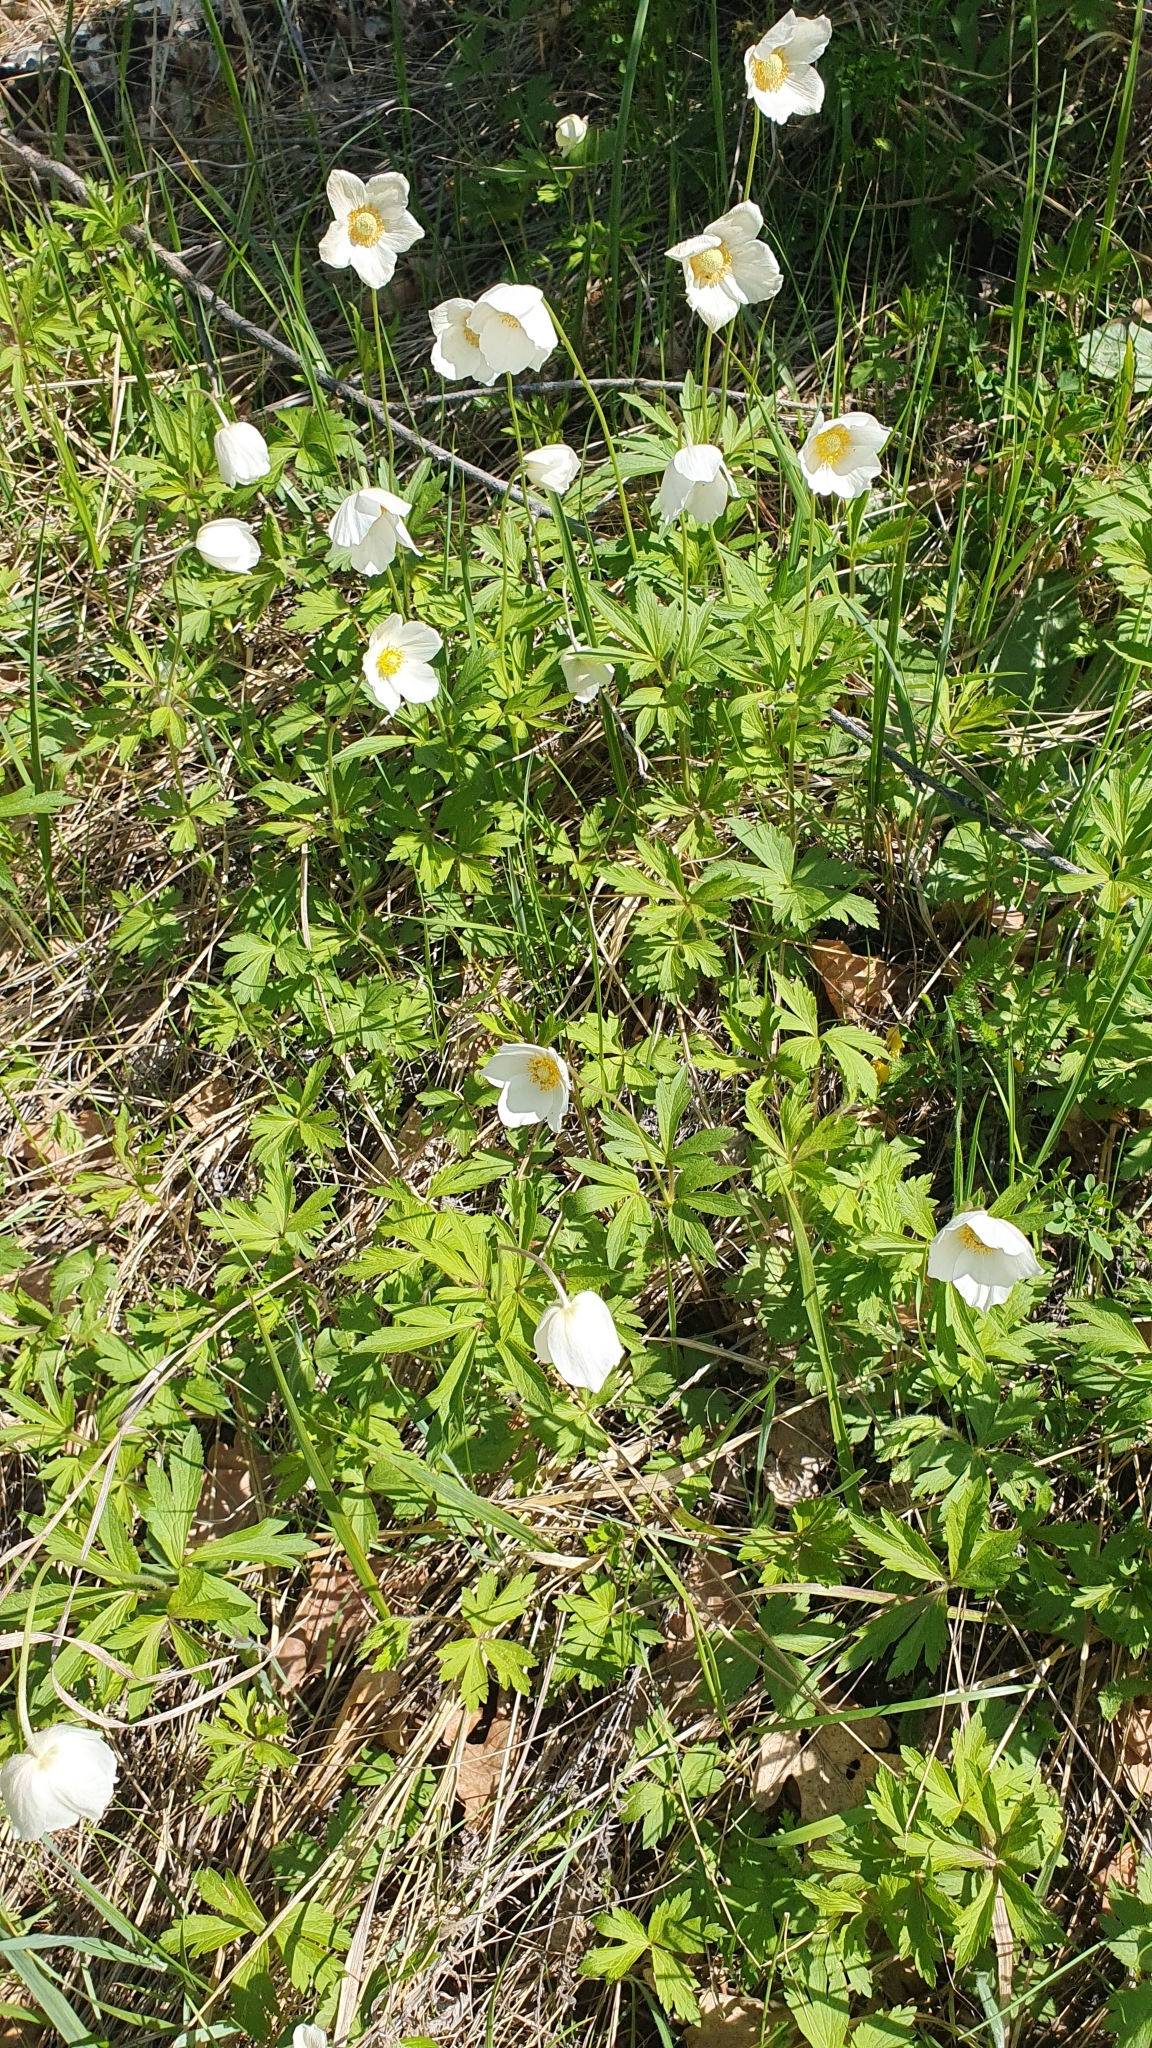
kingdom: Plantae
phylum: Tracheophyta
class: Magnoliopsida
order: Ranunculales
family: Ranunculaceae
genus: Anemone
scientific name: Anemone sylvestris
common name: Snowdrop anemone
